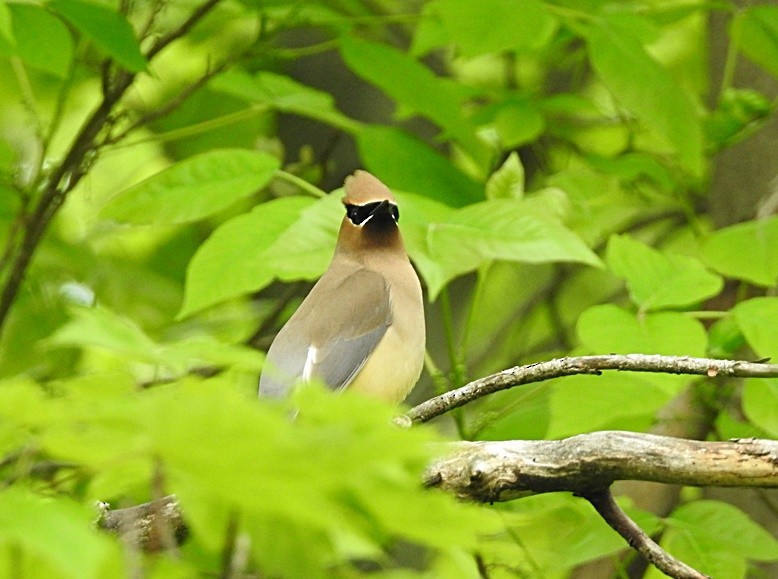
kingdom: Animalia
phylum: Chordata
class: Aves
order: Passeriformes
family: Bombycillidae
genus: Bombycilla
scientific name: Bombycilla cedrorum
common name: Cedar waxwing
